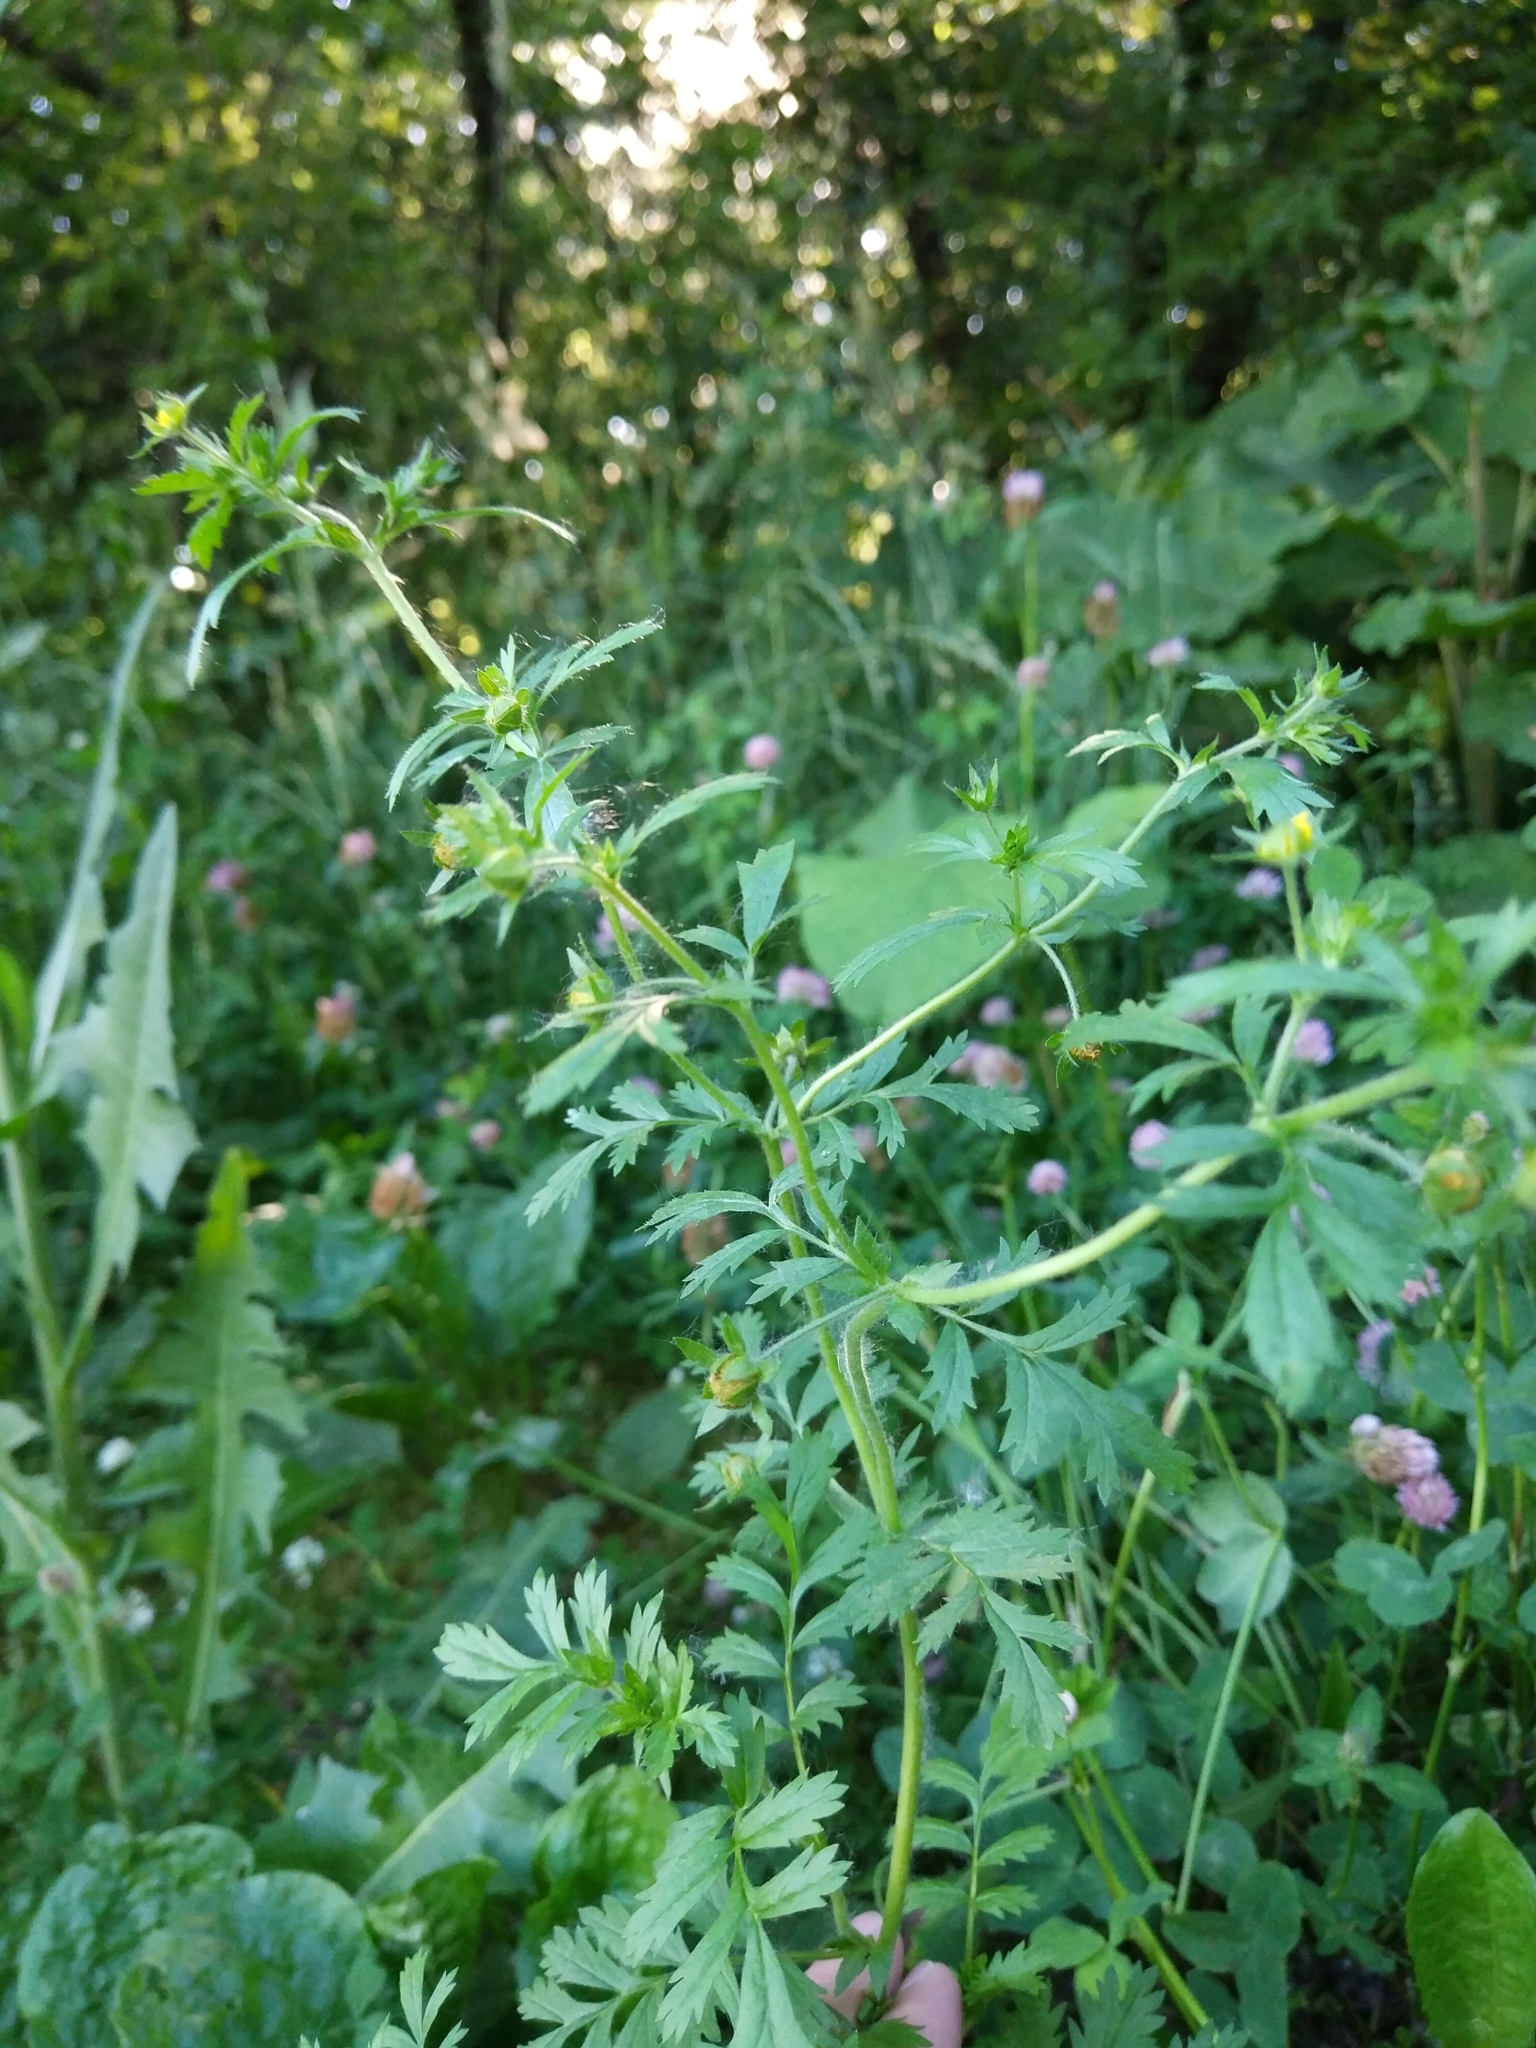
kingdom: Plantae
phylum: Tracheophyta
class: Magnoliopsida
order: Rosales
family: Rosaceae
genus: Potentilla
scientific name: Potentilla supina
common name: Prostrate cinquefoil
